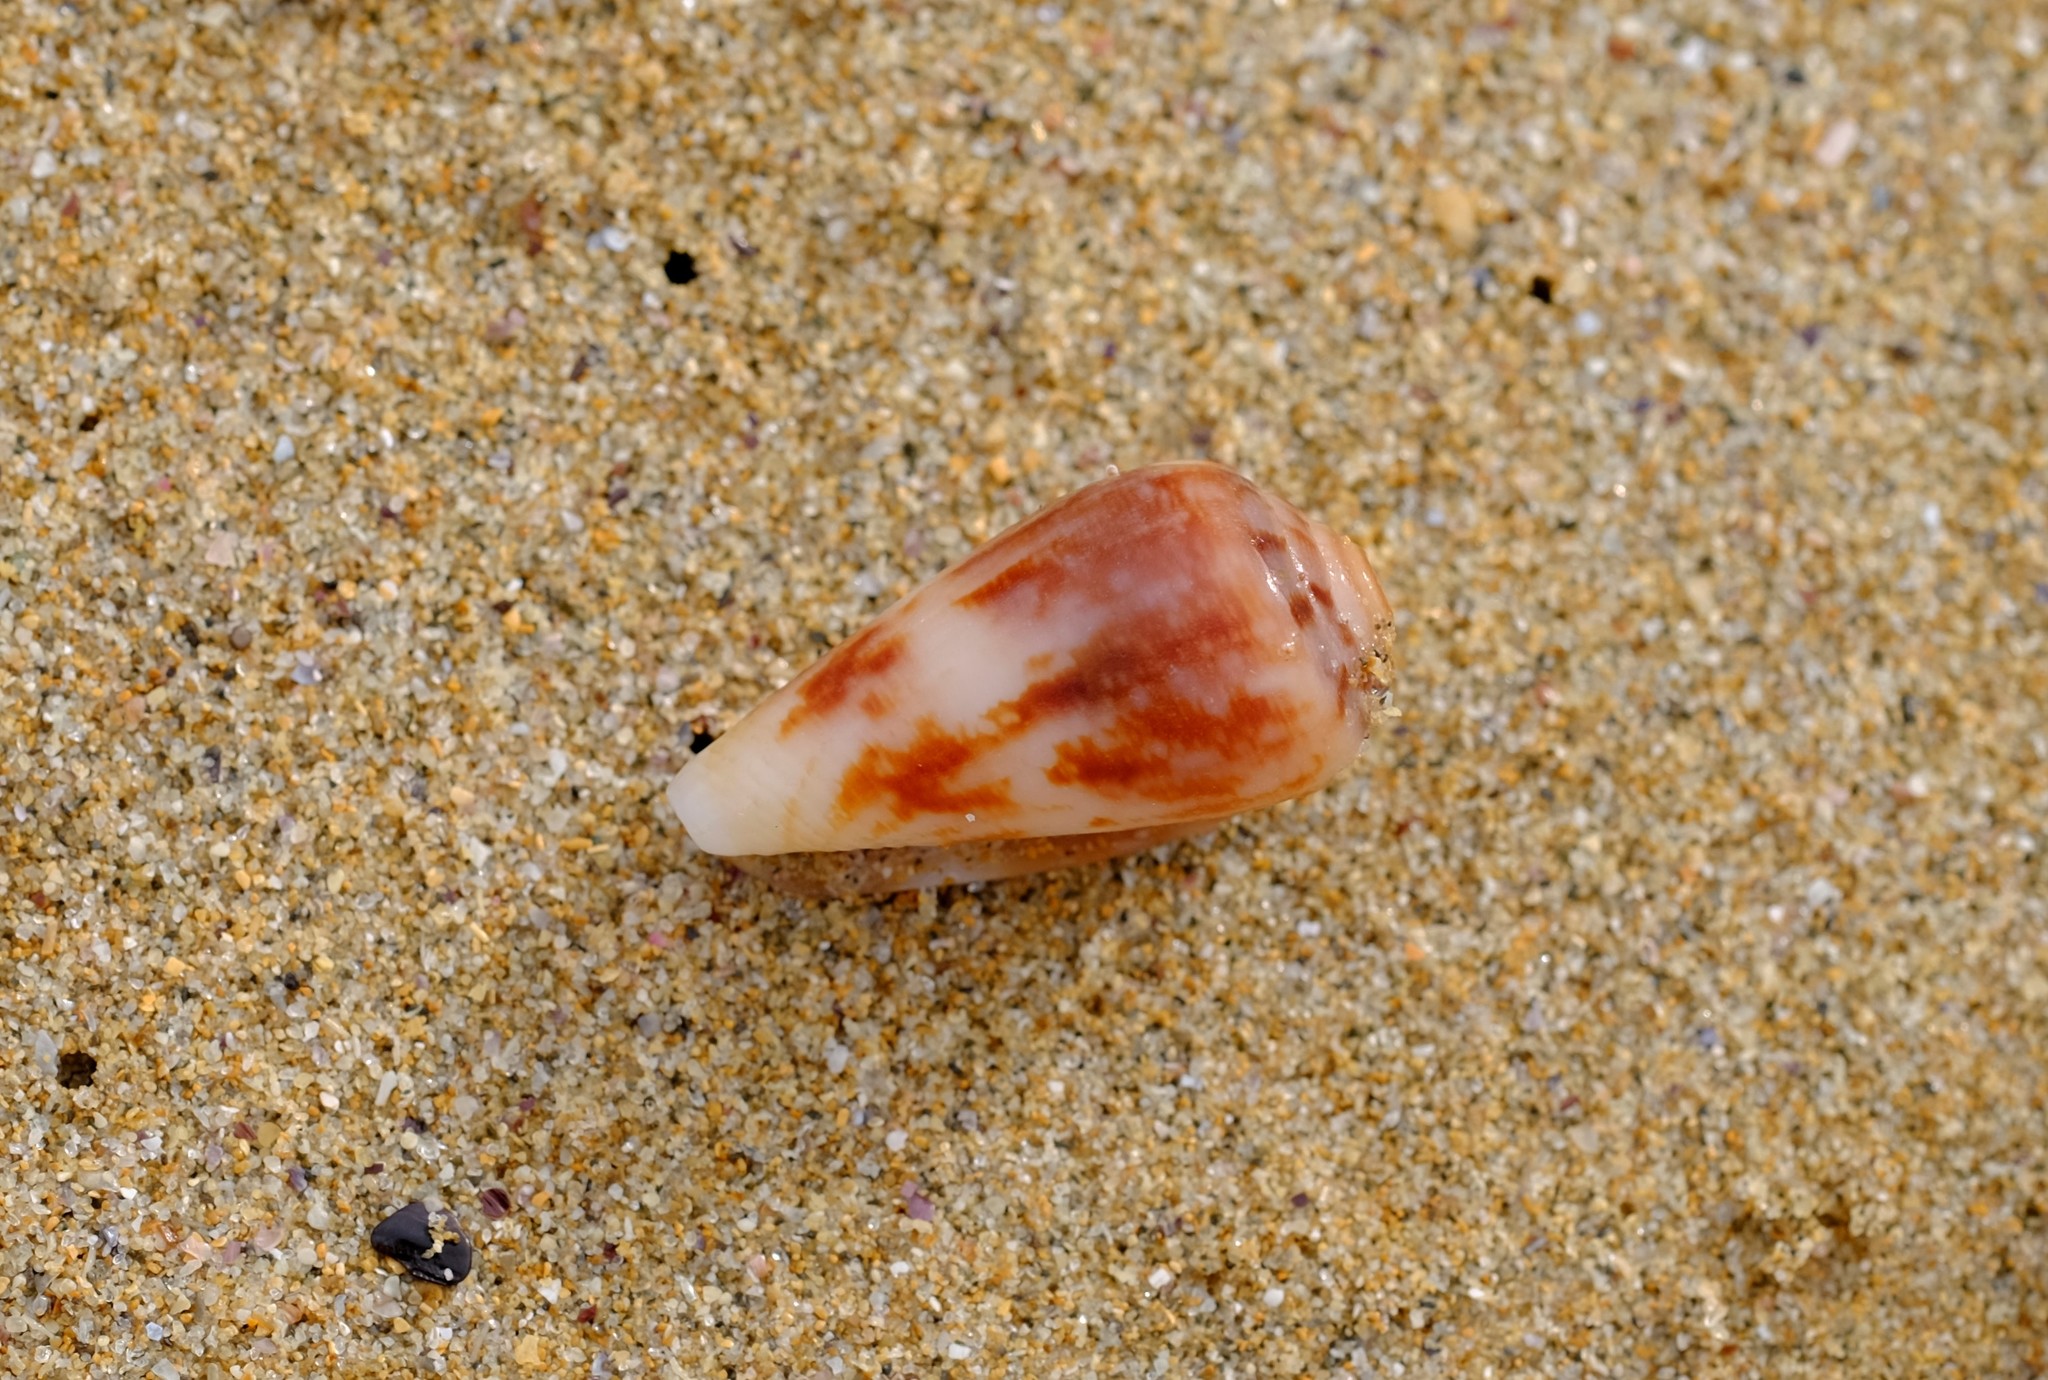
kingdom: Animalia
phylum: Mollusca
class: Gastropoda
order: Neogastropoda
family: Conidae
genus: Conus
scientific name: Conus anemone
